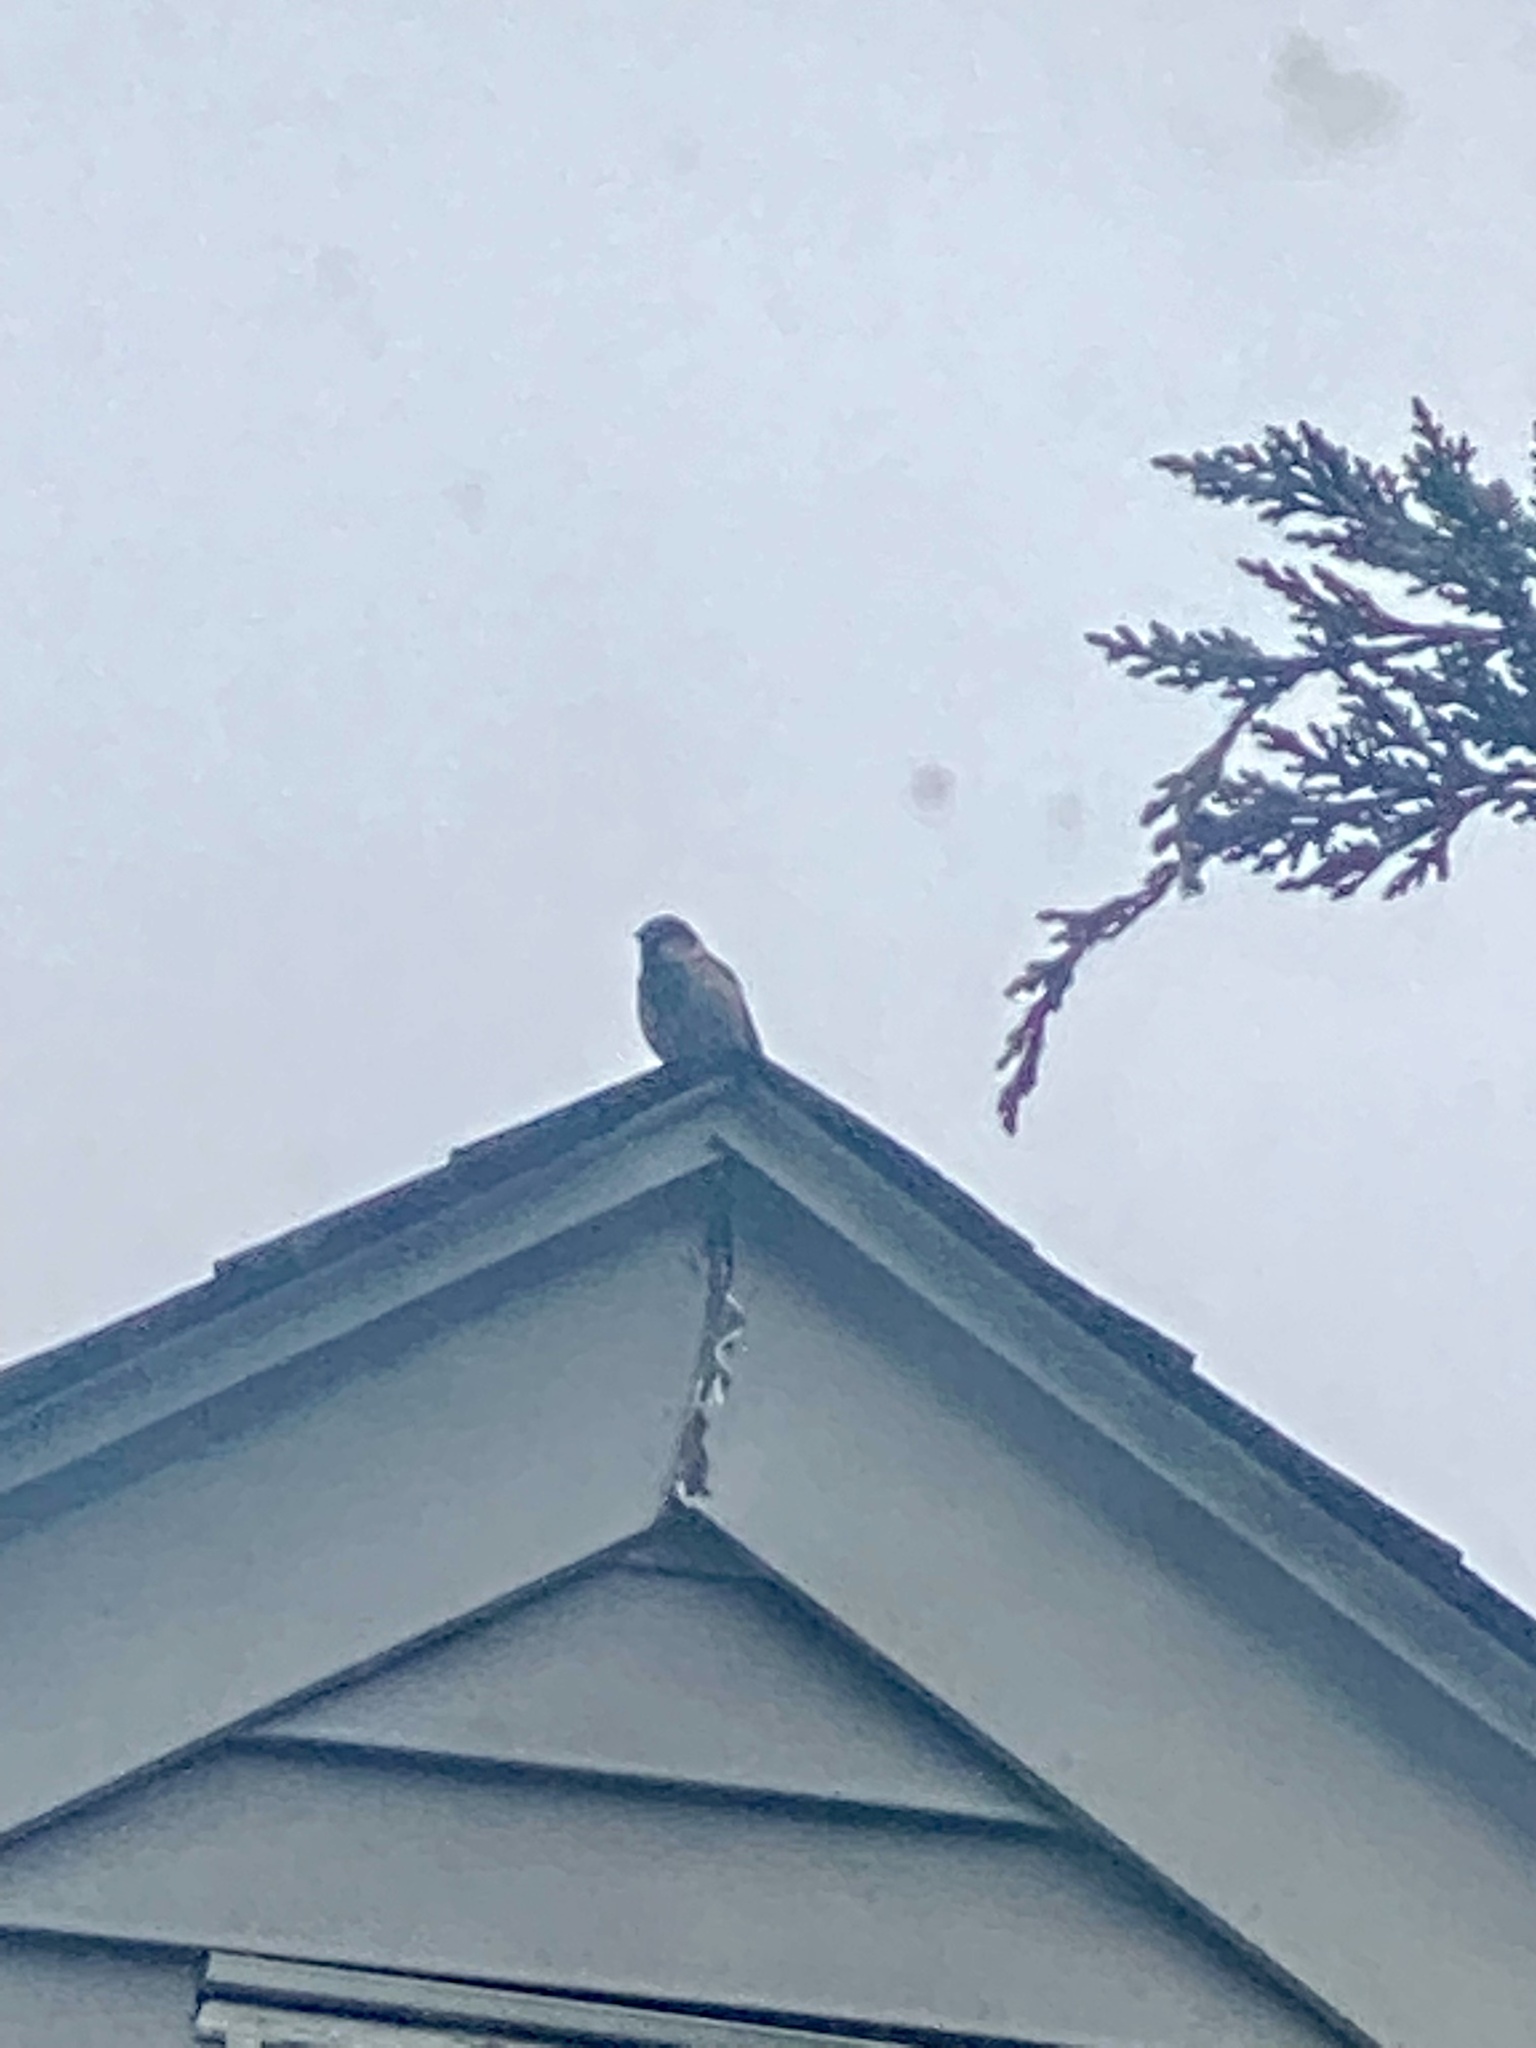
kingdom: Animalia
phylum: Chordata
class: Aves
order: Passeriformes
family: Passeridae
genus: Passer
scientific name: Passer domesticus
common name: House sparrow
